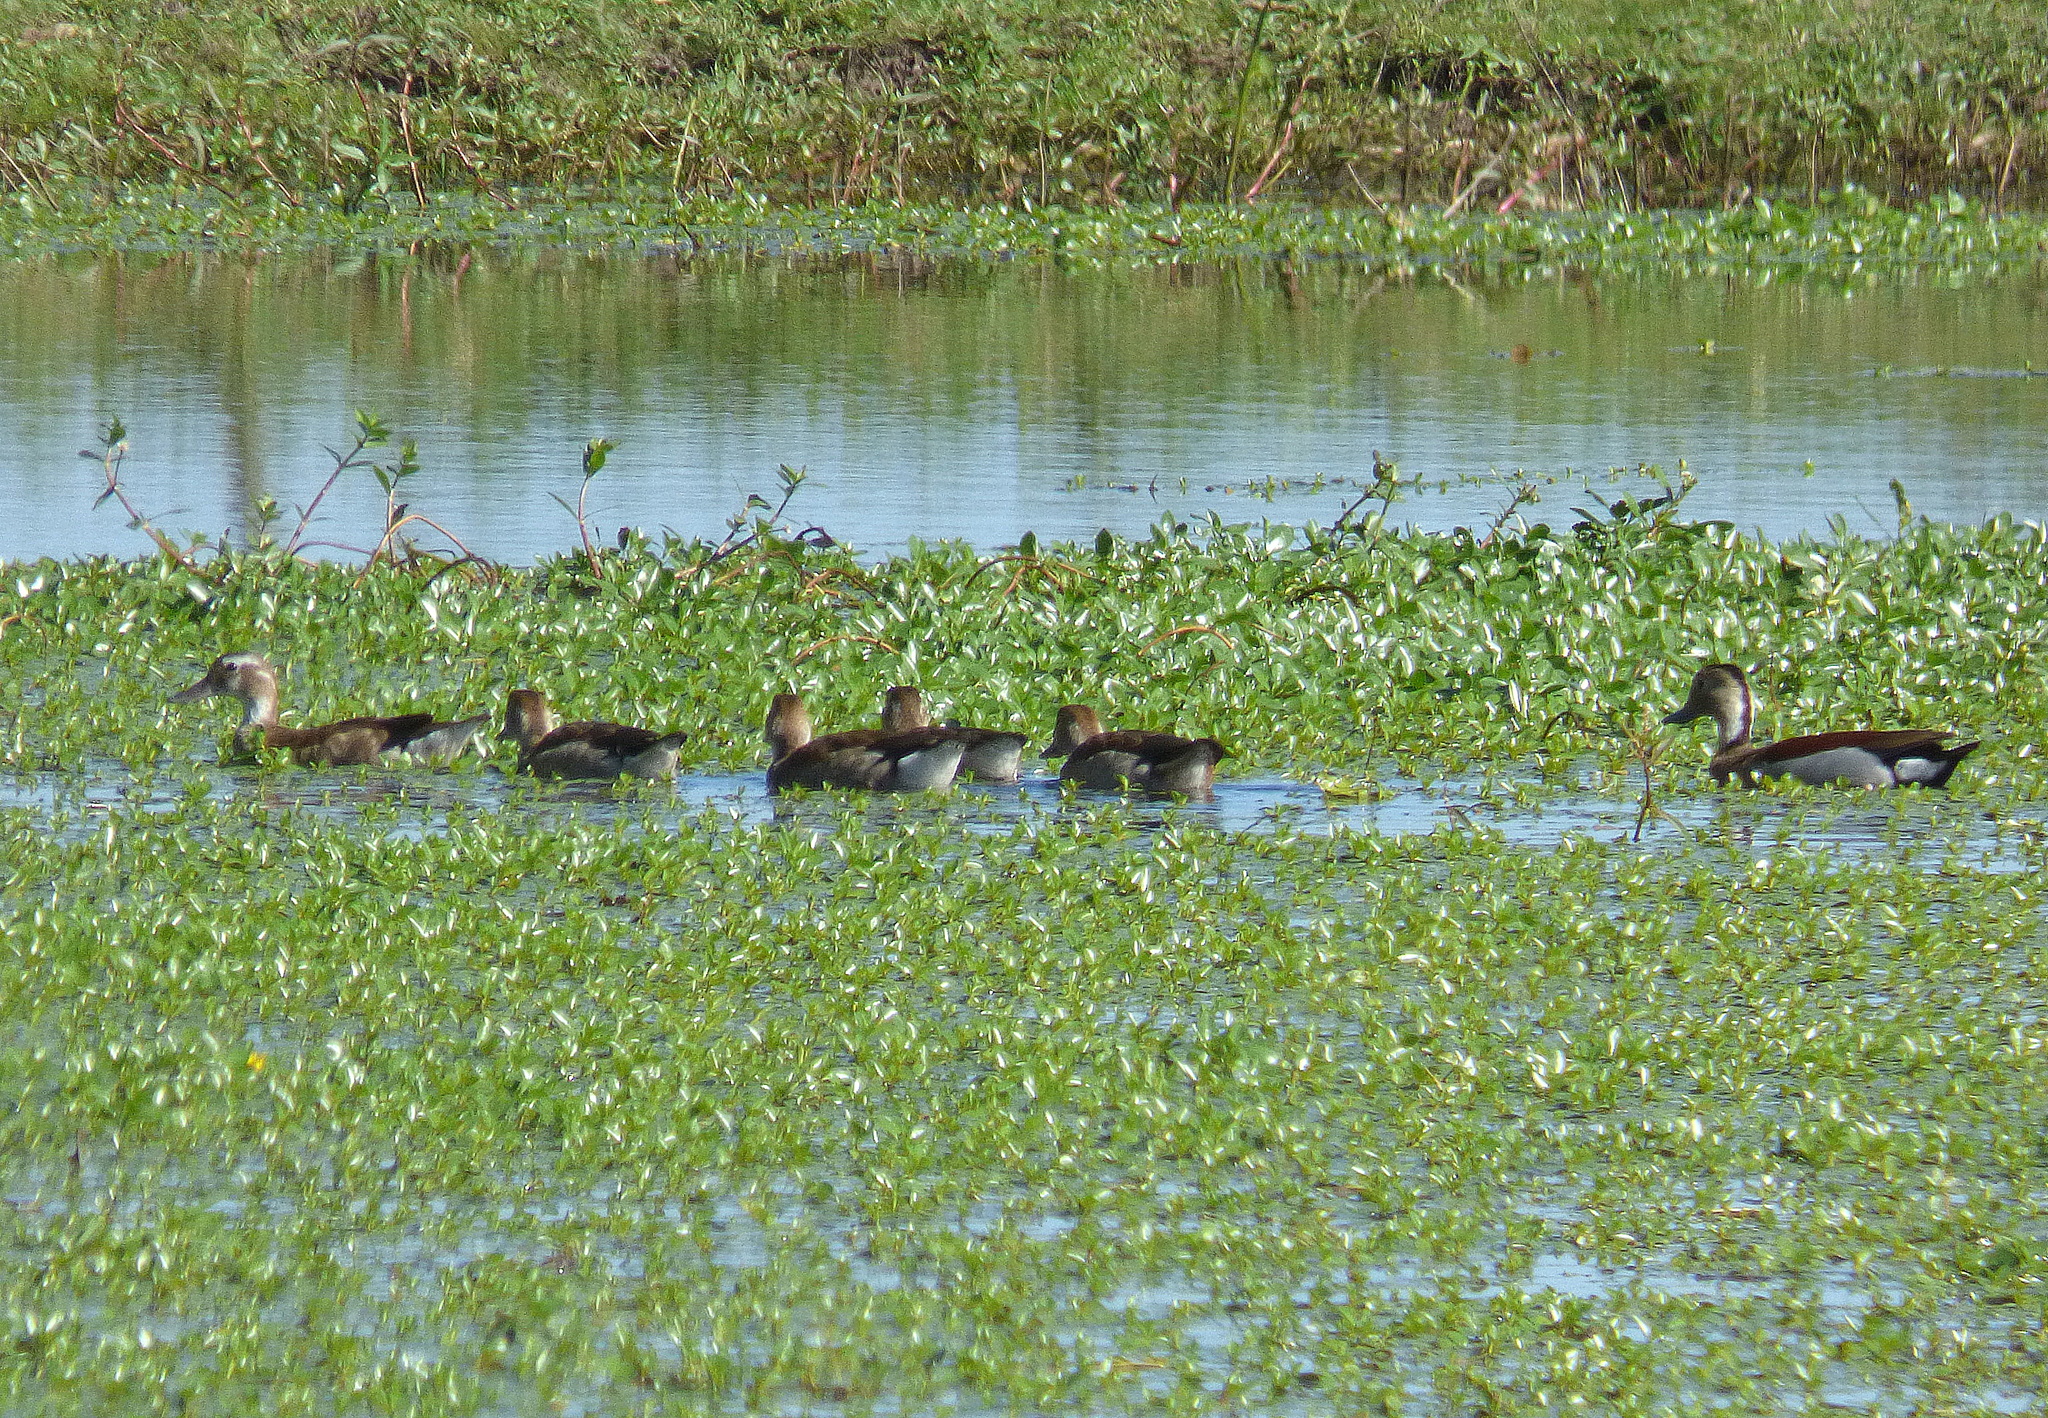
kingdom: Animalia
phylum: Chordata
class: Aves
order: Anseriformes
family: Anatidae
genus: Callonetta
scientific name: Callonetta leucophrys
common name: Ringed teal
